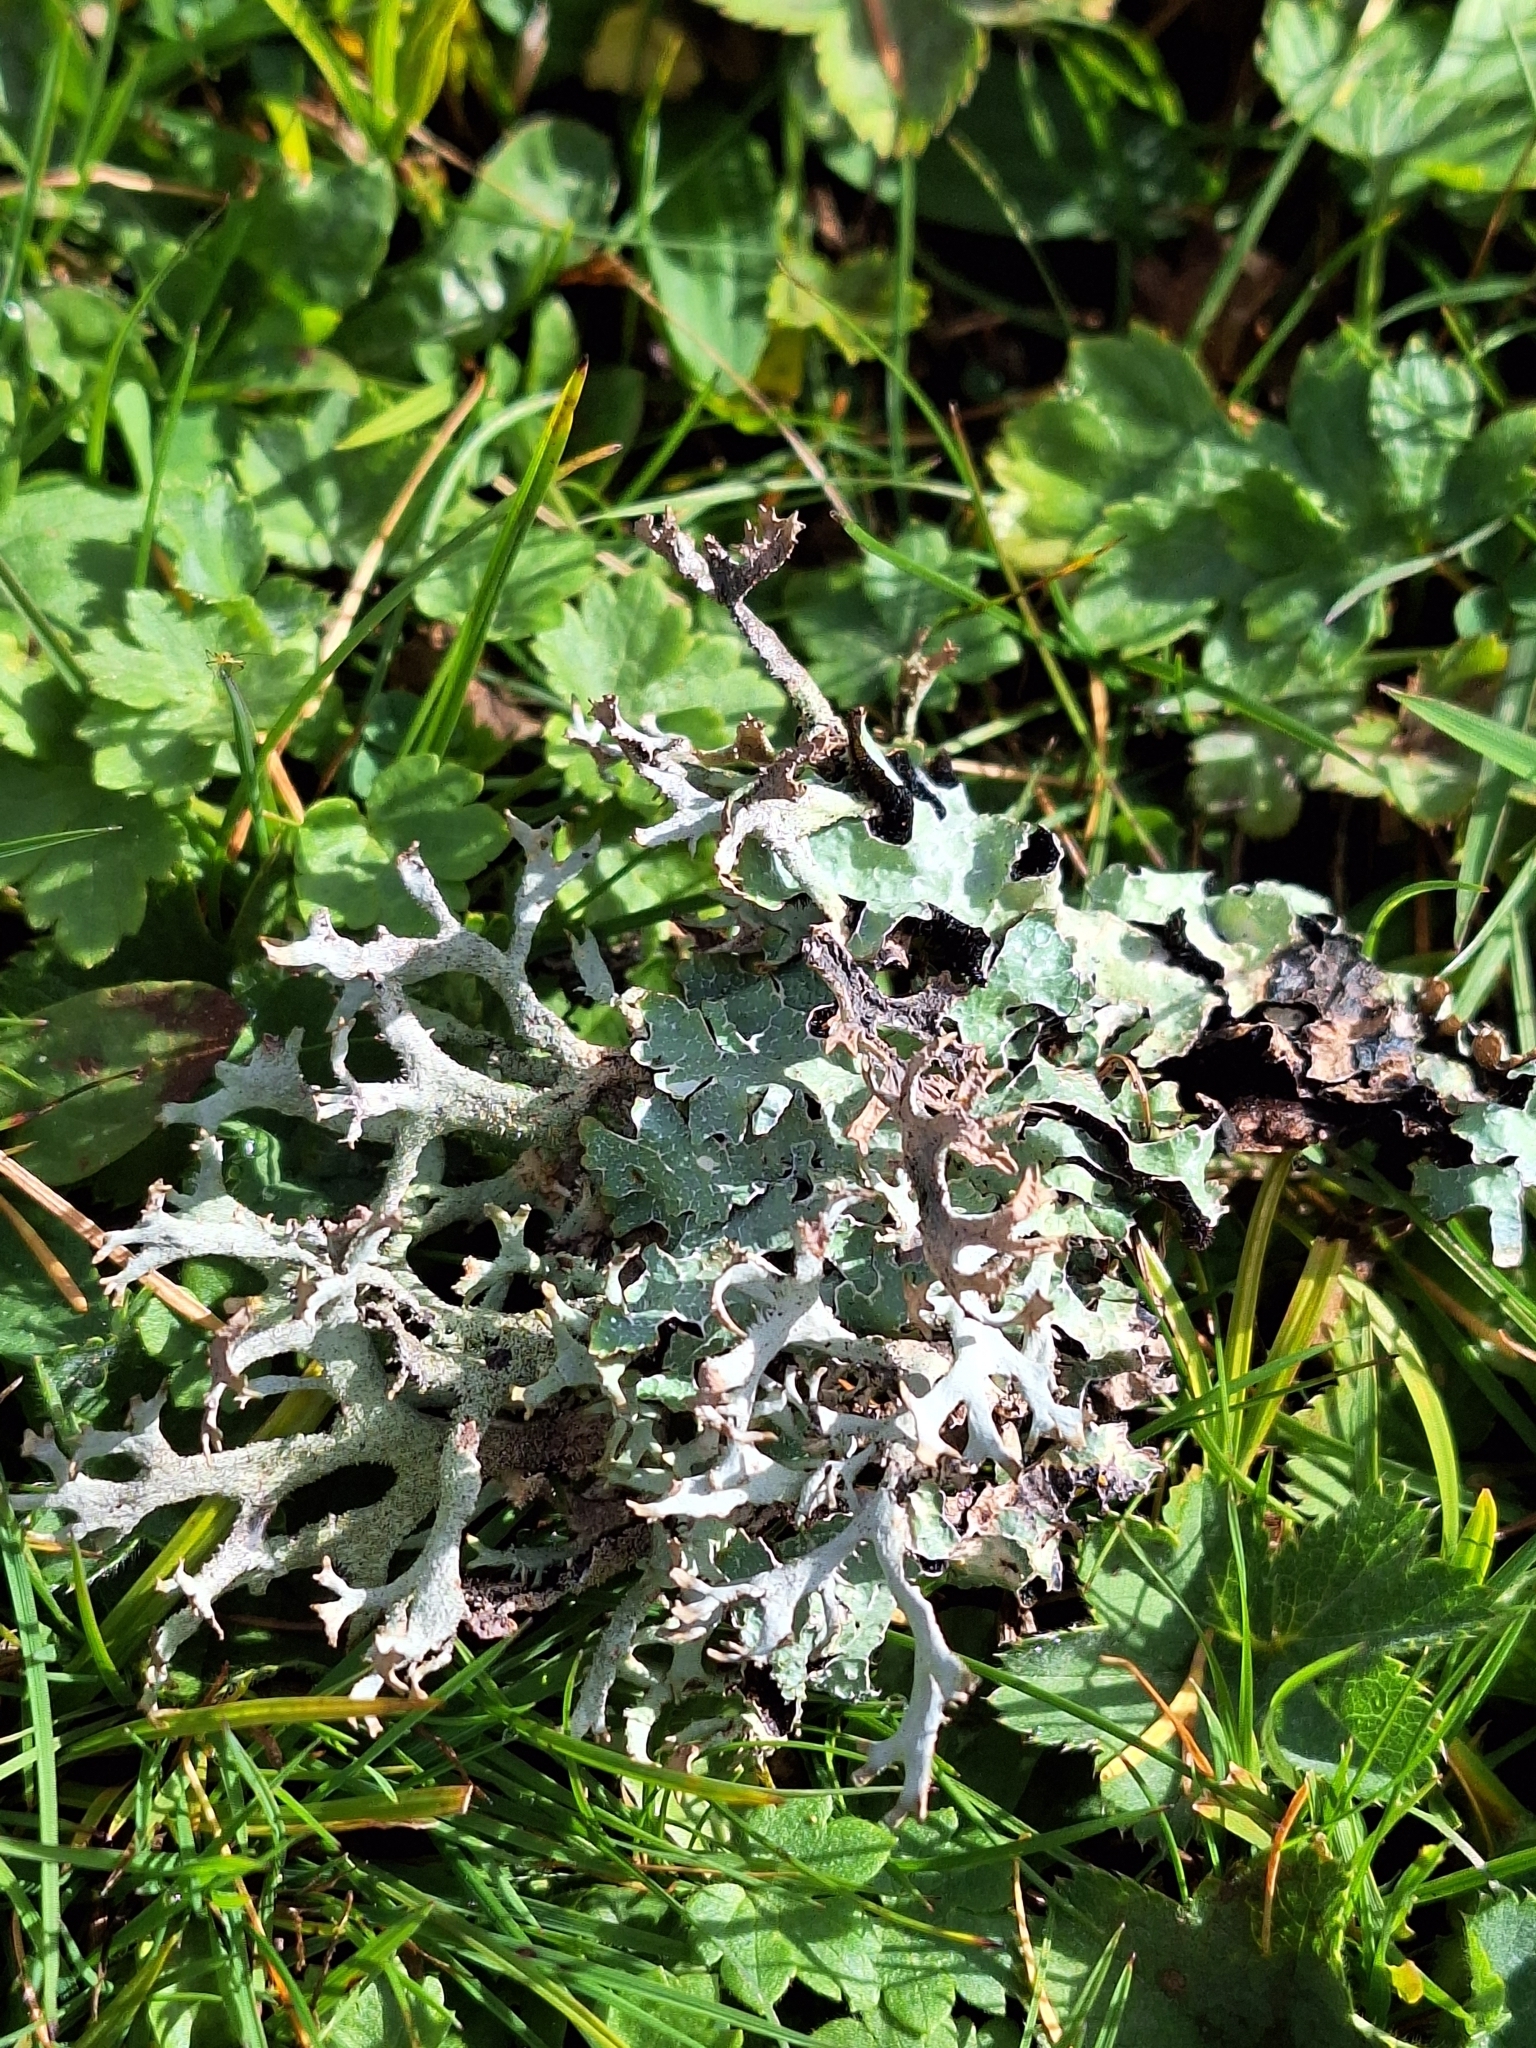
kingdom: Fungi
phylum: Ascomycota
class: Lecanoromycetes
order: Lecanorales
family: Parmeliaceae
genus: Pseudevernia
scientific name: Pseudevernia furfuracea
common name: Tree moss
